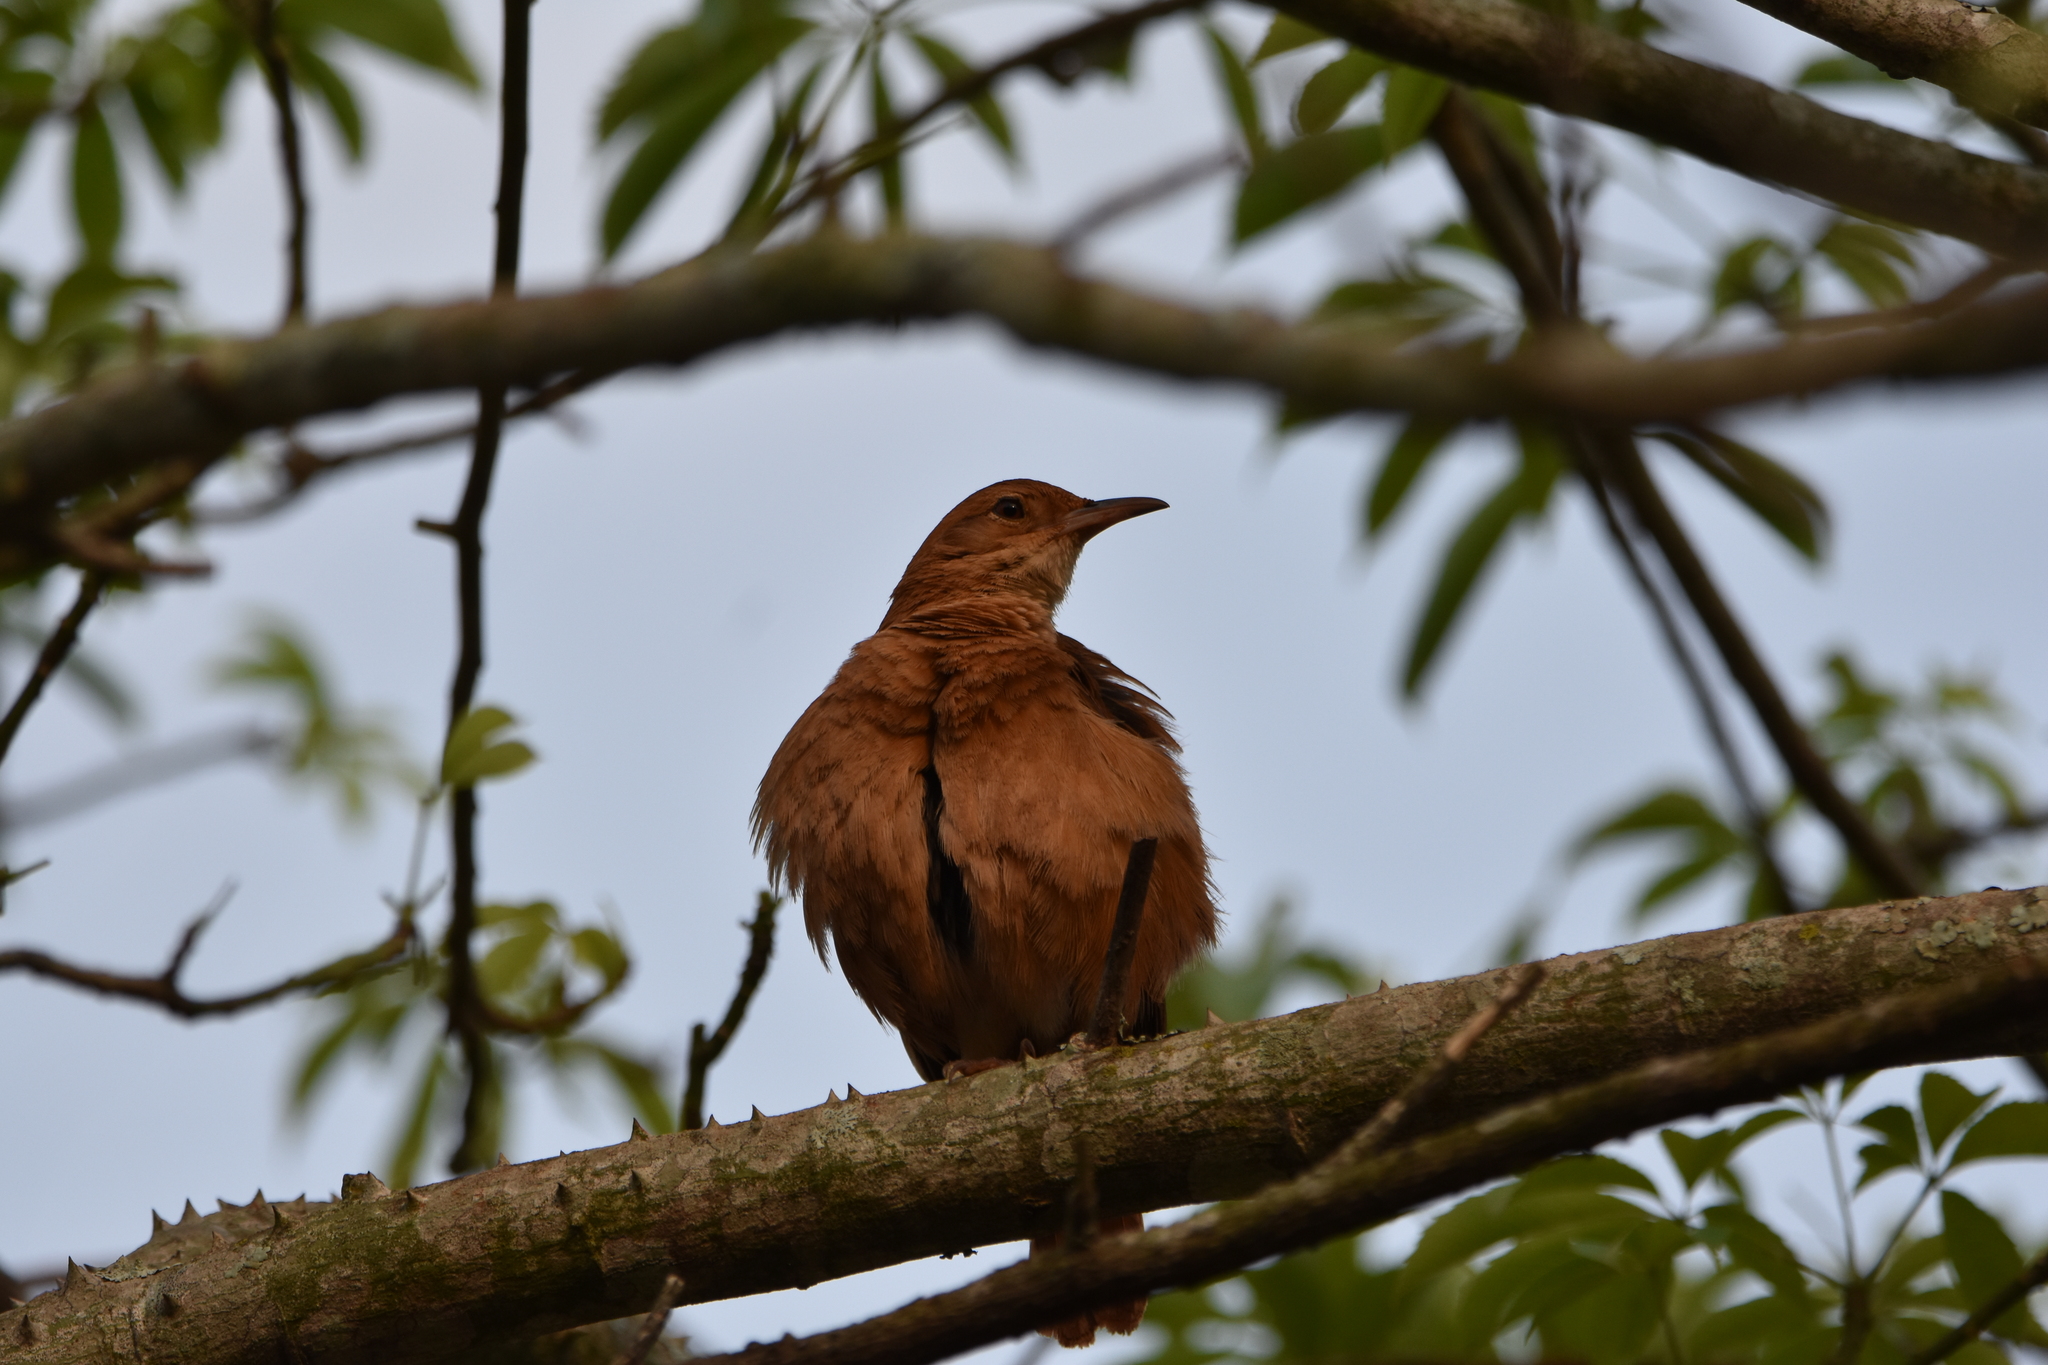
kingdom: Animalia
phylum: Chordata
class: Aves
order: Passeriformes
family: Furnariidae
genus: Furnarius
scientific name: Furnarius rufus
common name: Rufous hornero
